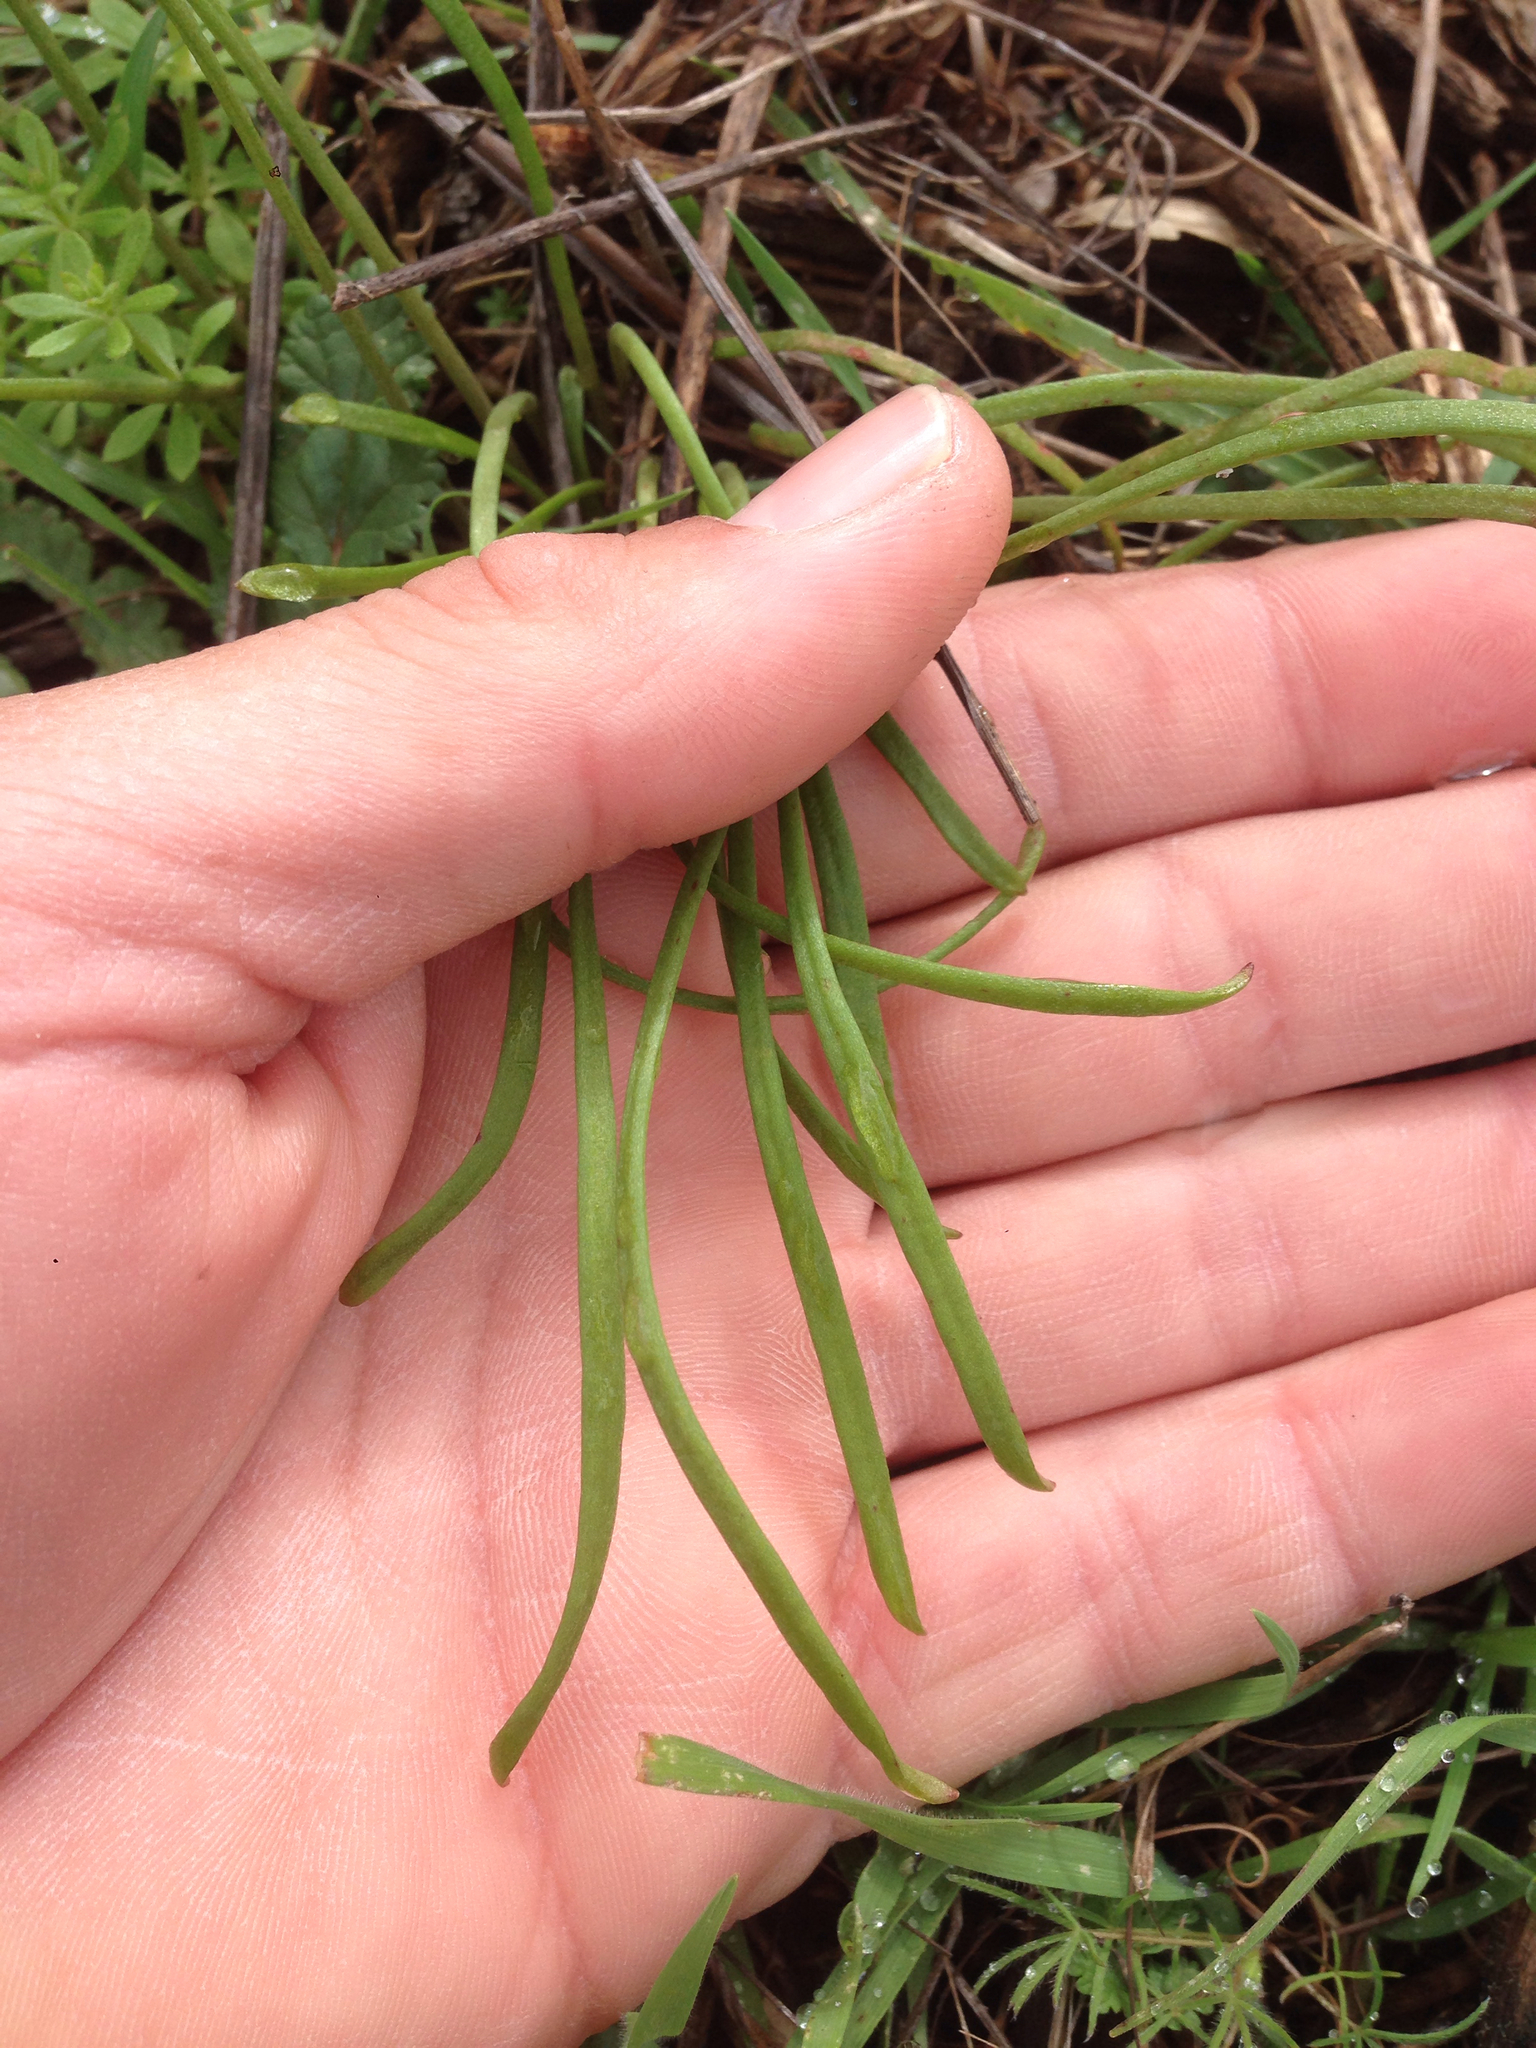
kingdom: Plantae
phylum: Tracheophyta
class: Magnoliopsida
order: Caryophyllales
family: Montiaceae
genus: Claytonia
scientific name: Claytonia parviflora
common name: Indian-lettuce
